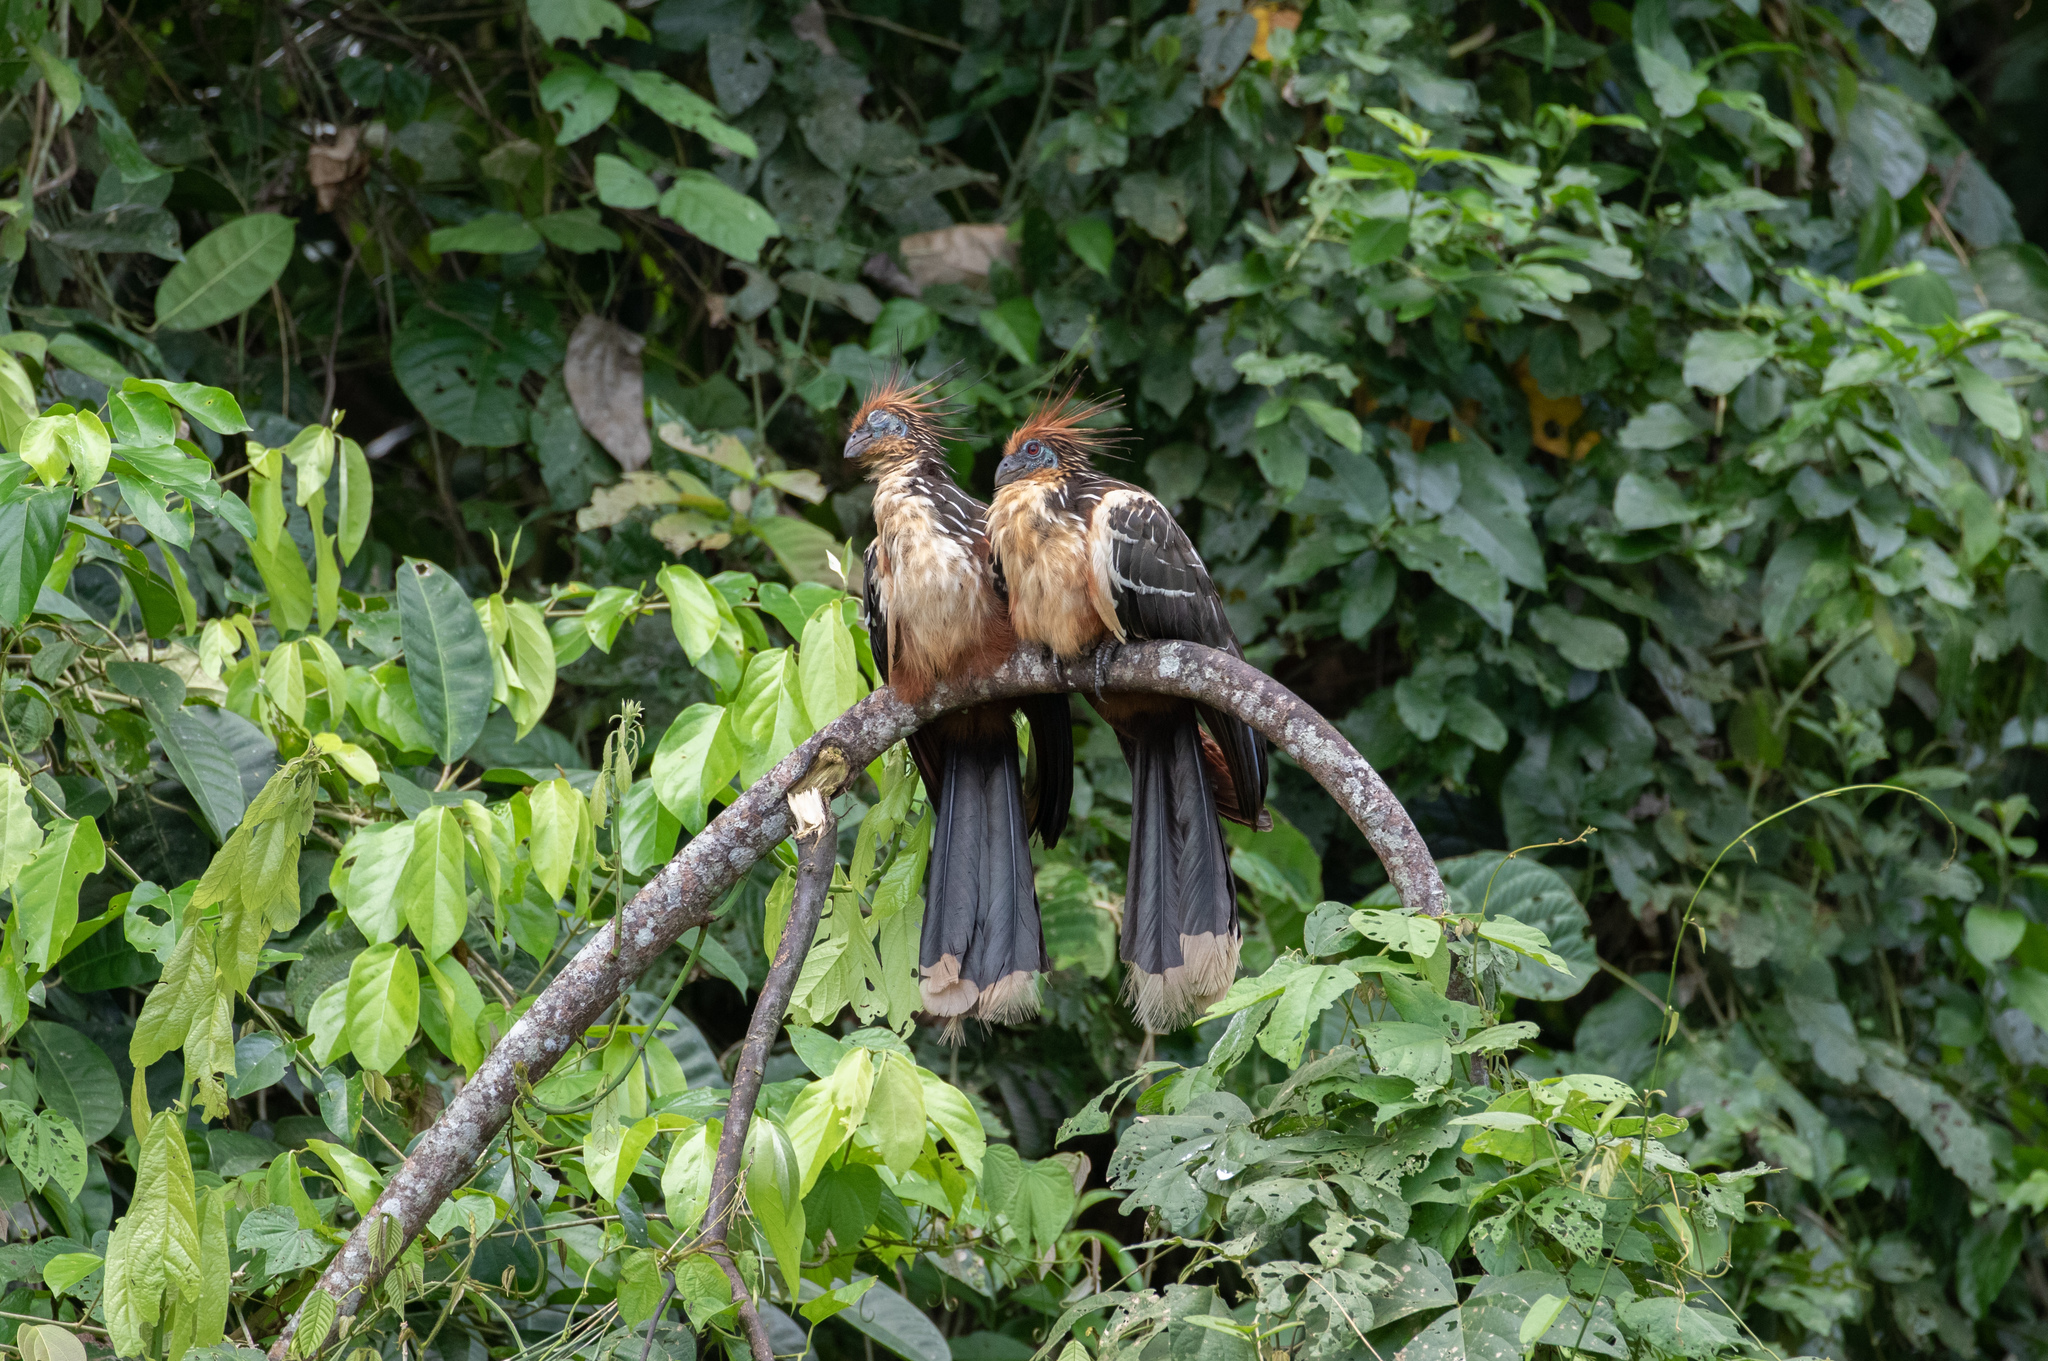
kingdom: Animalia
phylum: Chordata
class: Aves
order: Opisthocomiformes
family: Opisthocomidae
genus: Opisthocomus
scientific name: Opisthocomus hoazin
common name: Hoatzin
